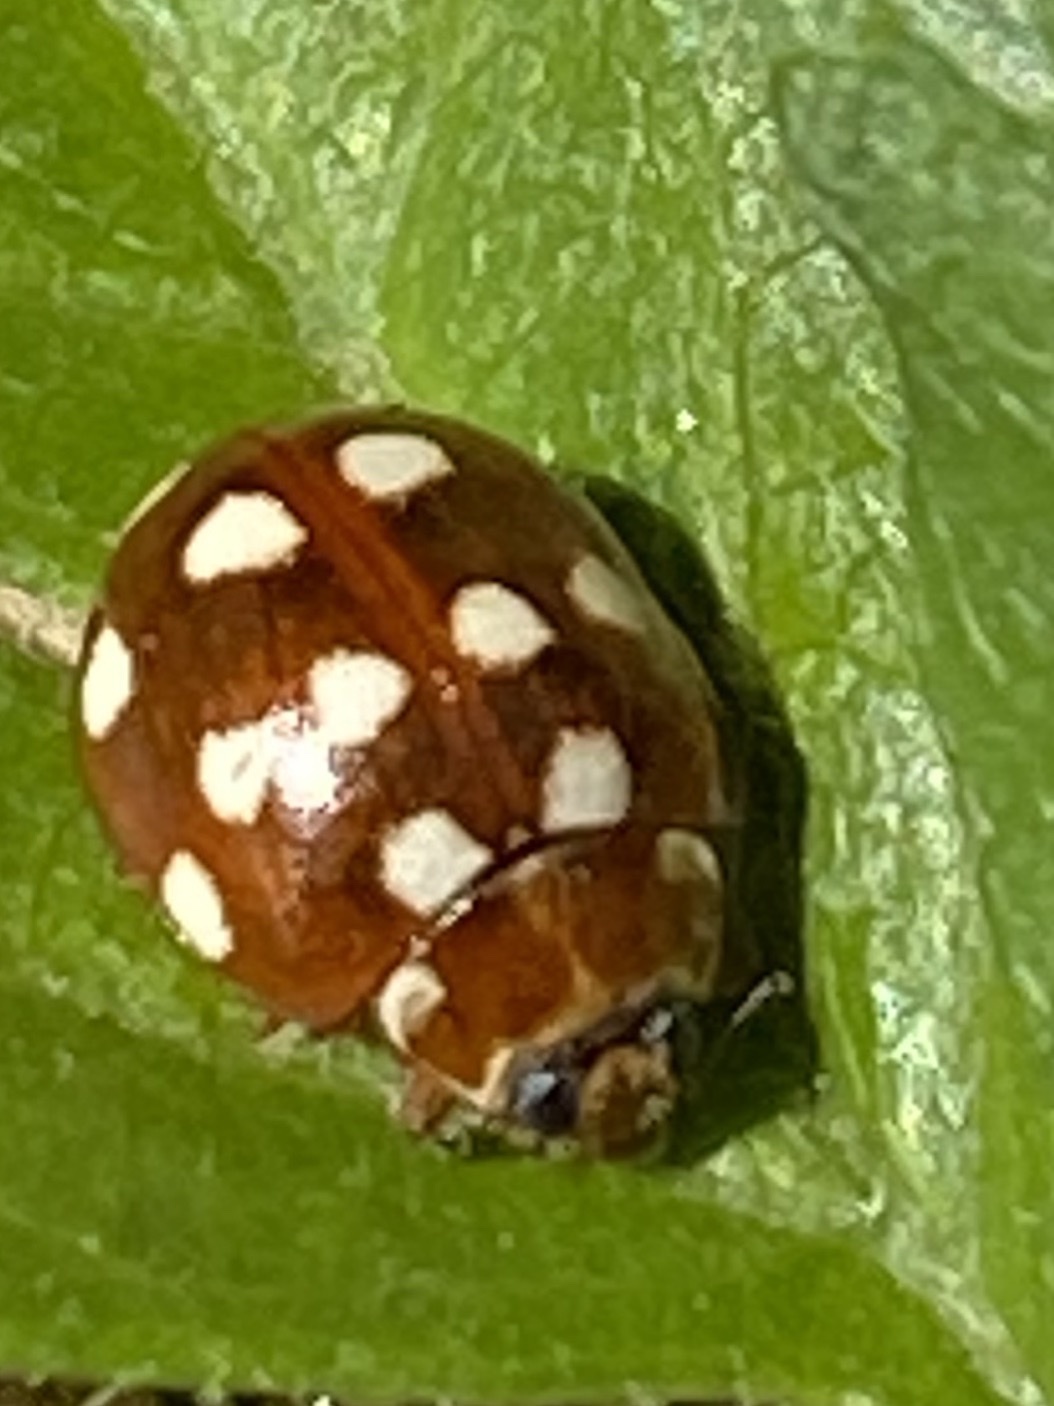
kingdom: Animalia
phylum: Arthropoda
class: Insecta
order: Coleoptera
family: Coccinellidae
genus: Calvia
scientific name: Calvia quatuordecimguttata
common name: Cream-spot ladybird
